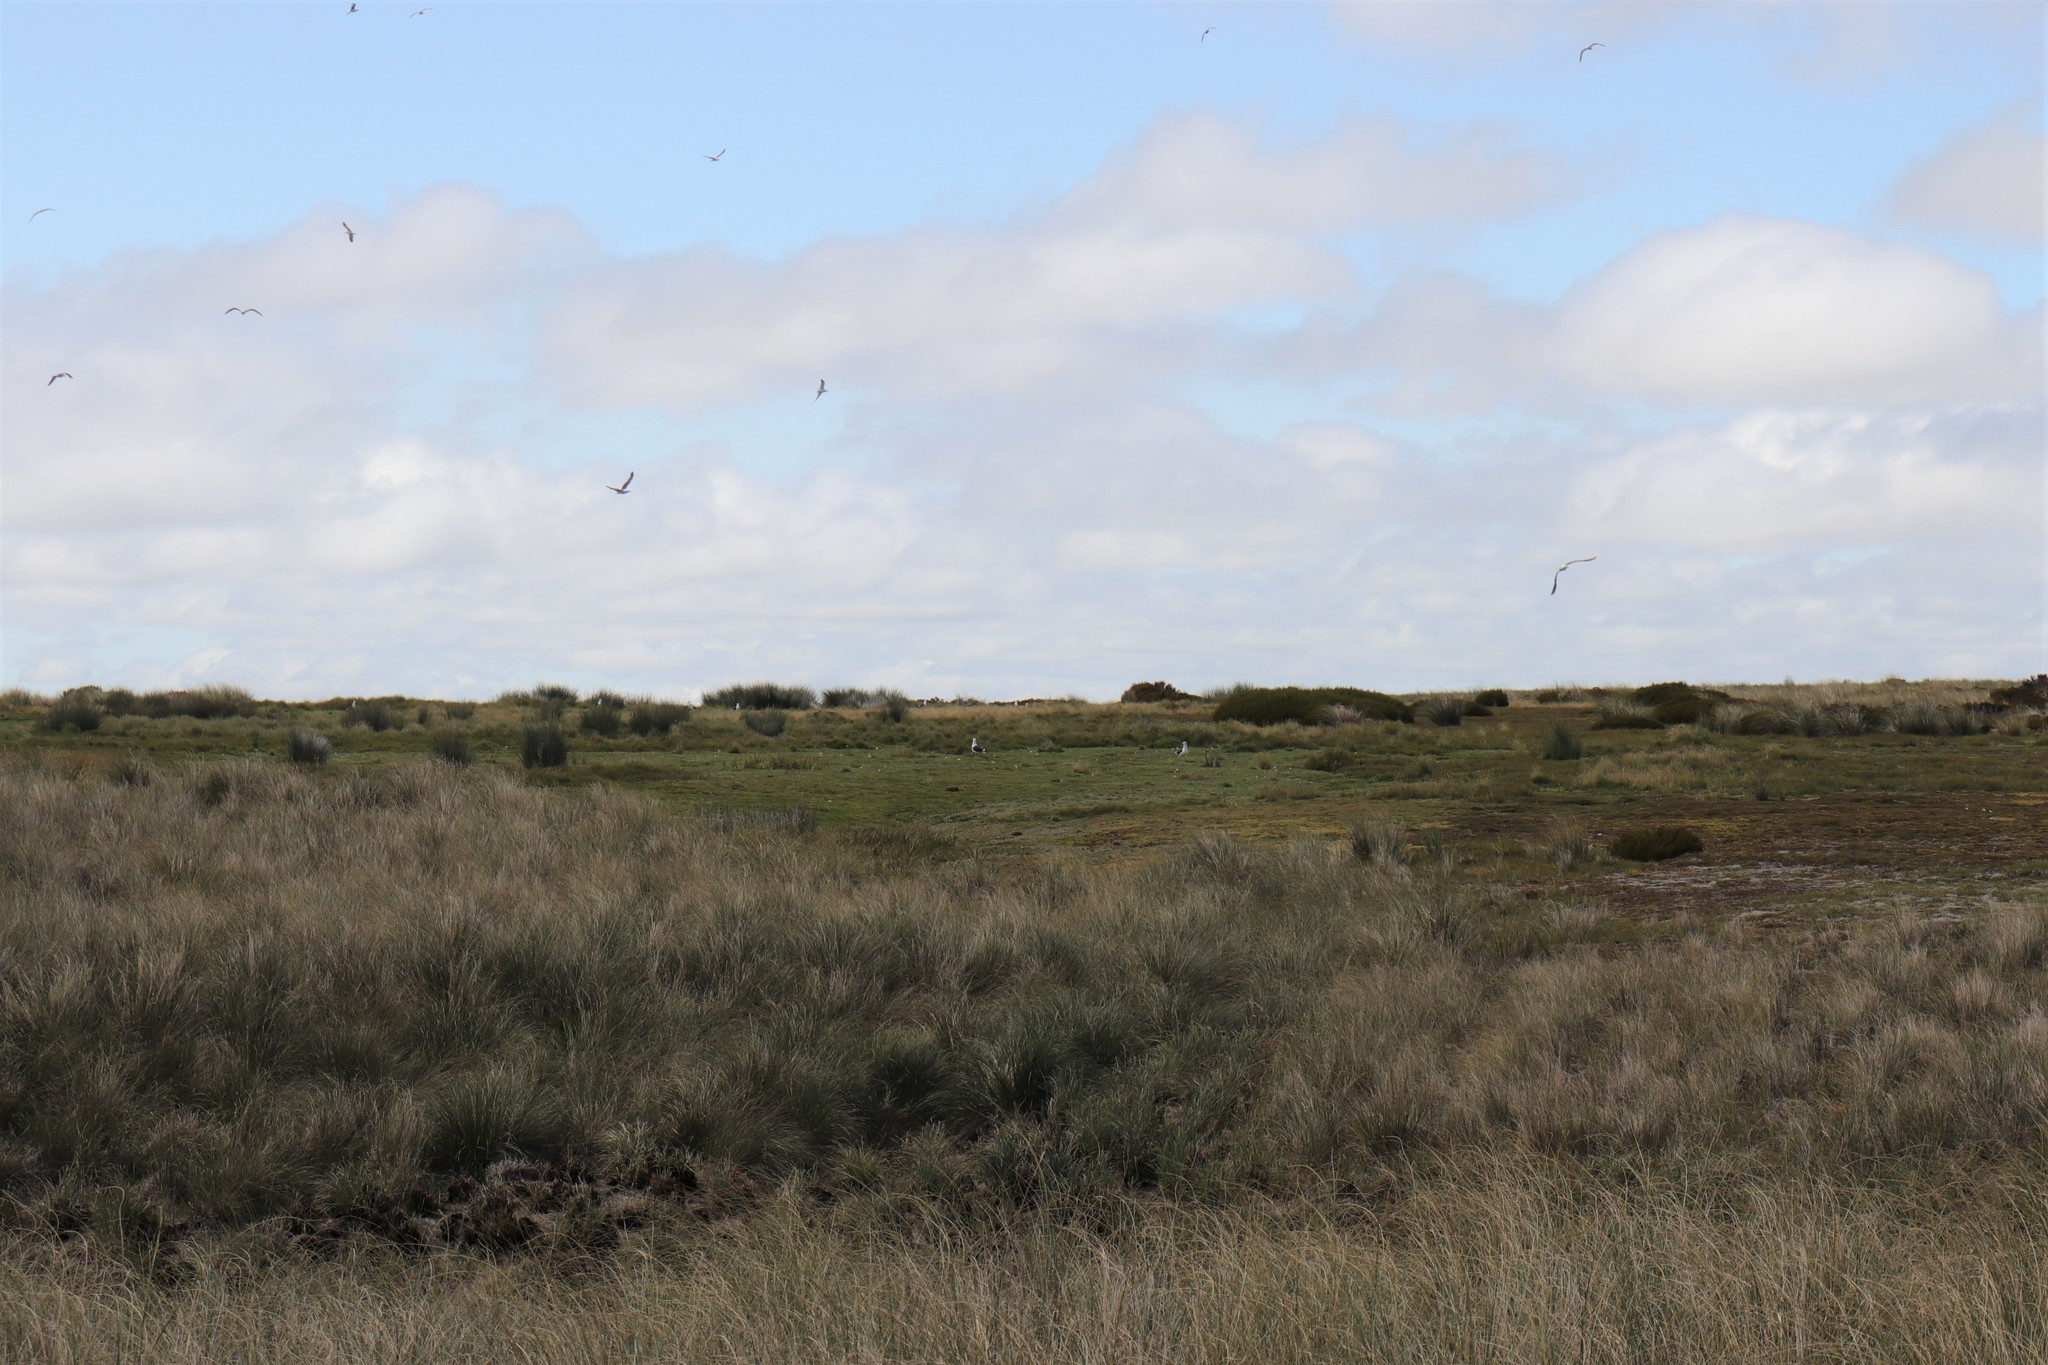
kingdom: Animalia
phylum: Chordata
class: Aves
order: Charadriiformes
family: Laridae
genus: Larus
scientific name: Larus dominicanus
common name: Kelp gull
